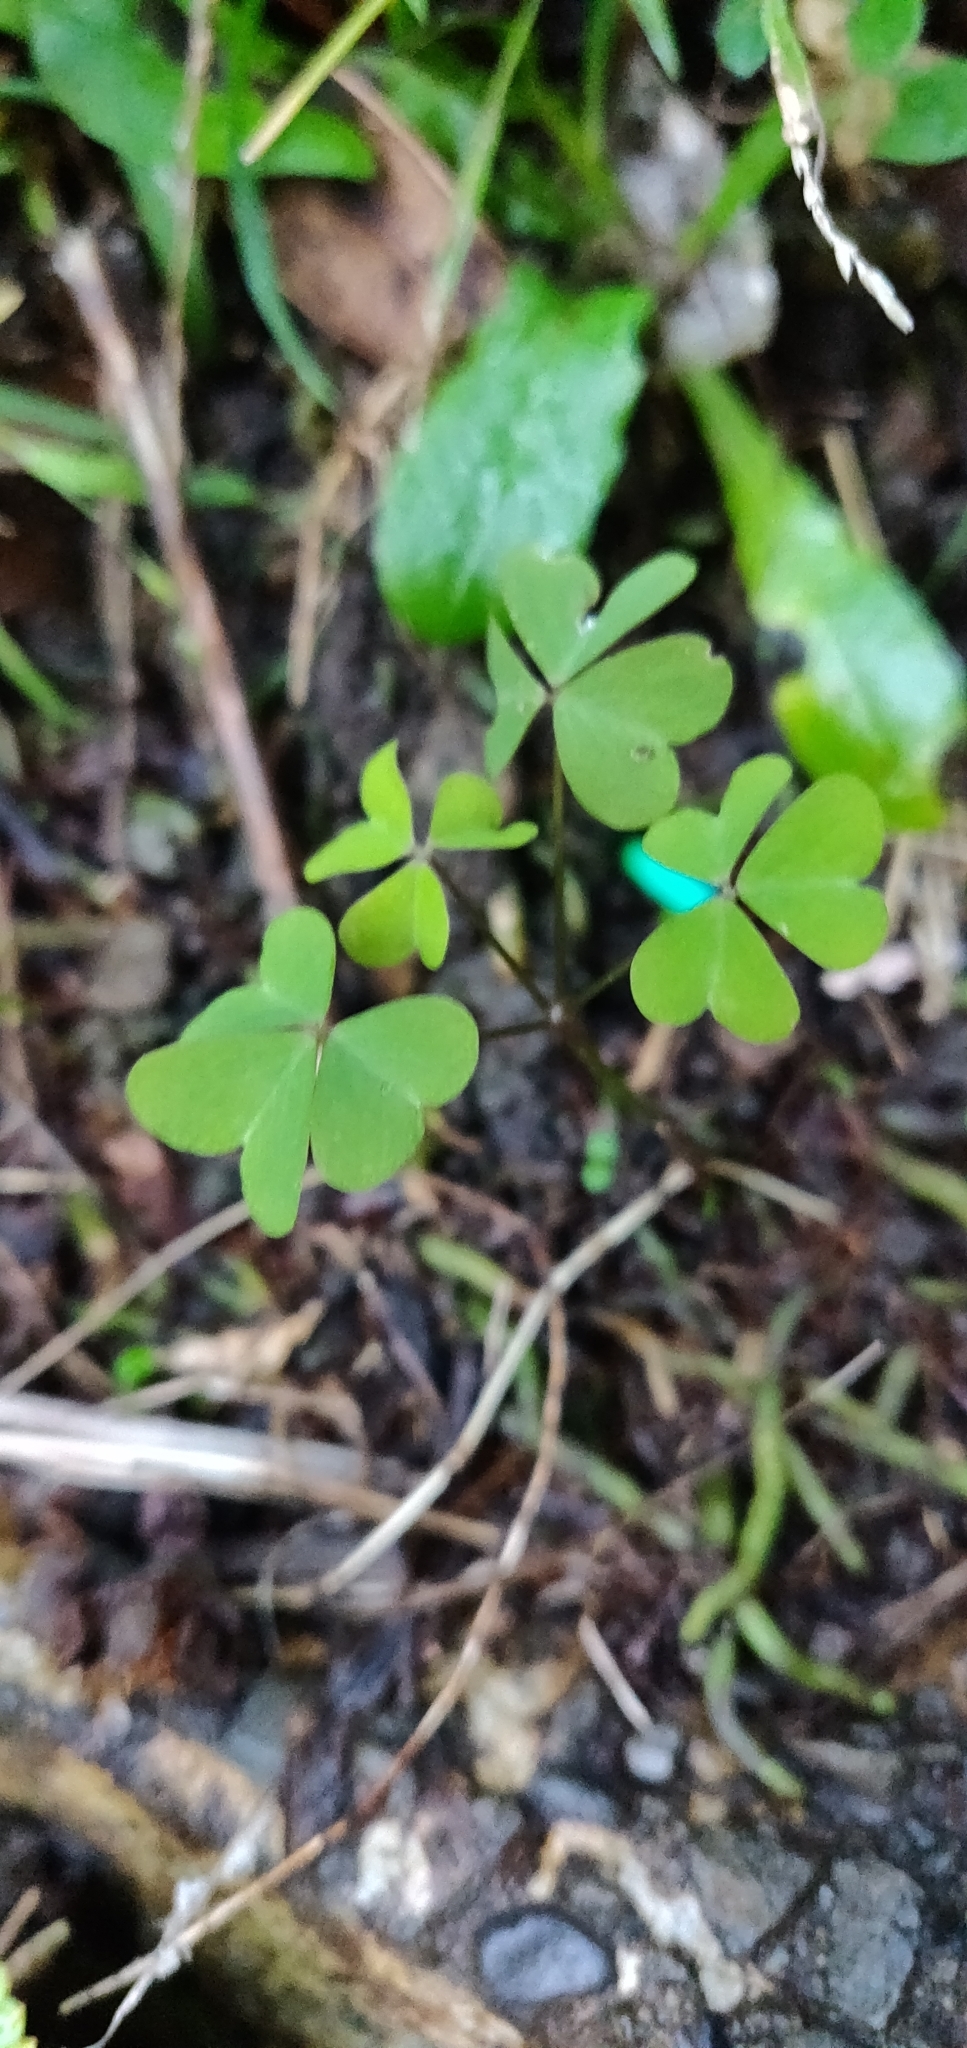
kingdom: Plantae
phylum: Tracheophyta
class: Magnoliopsida
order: Oxalidales
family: Oxalidaceae
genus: Oxalis
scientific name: Oxalis incarnata
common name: Pale pink-sorrel
